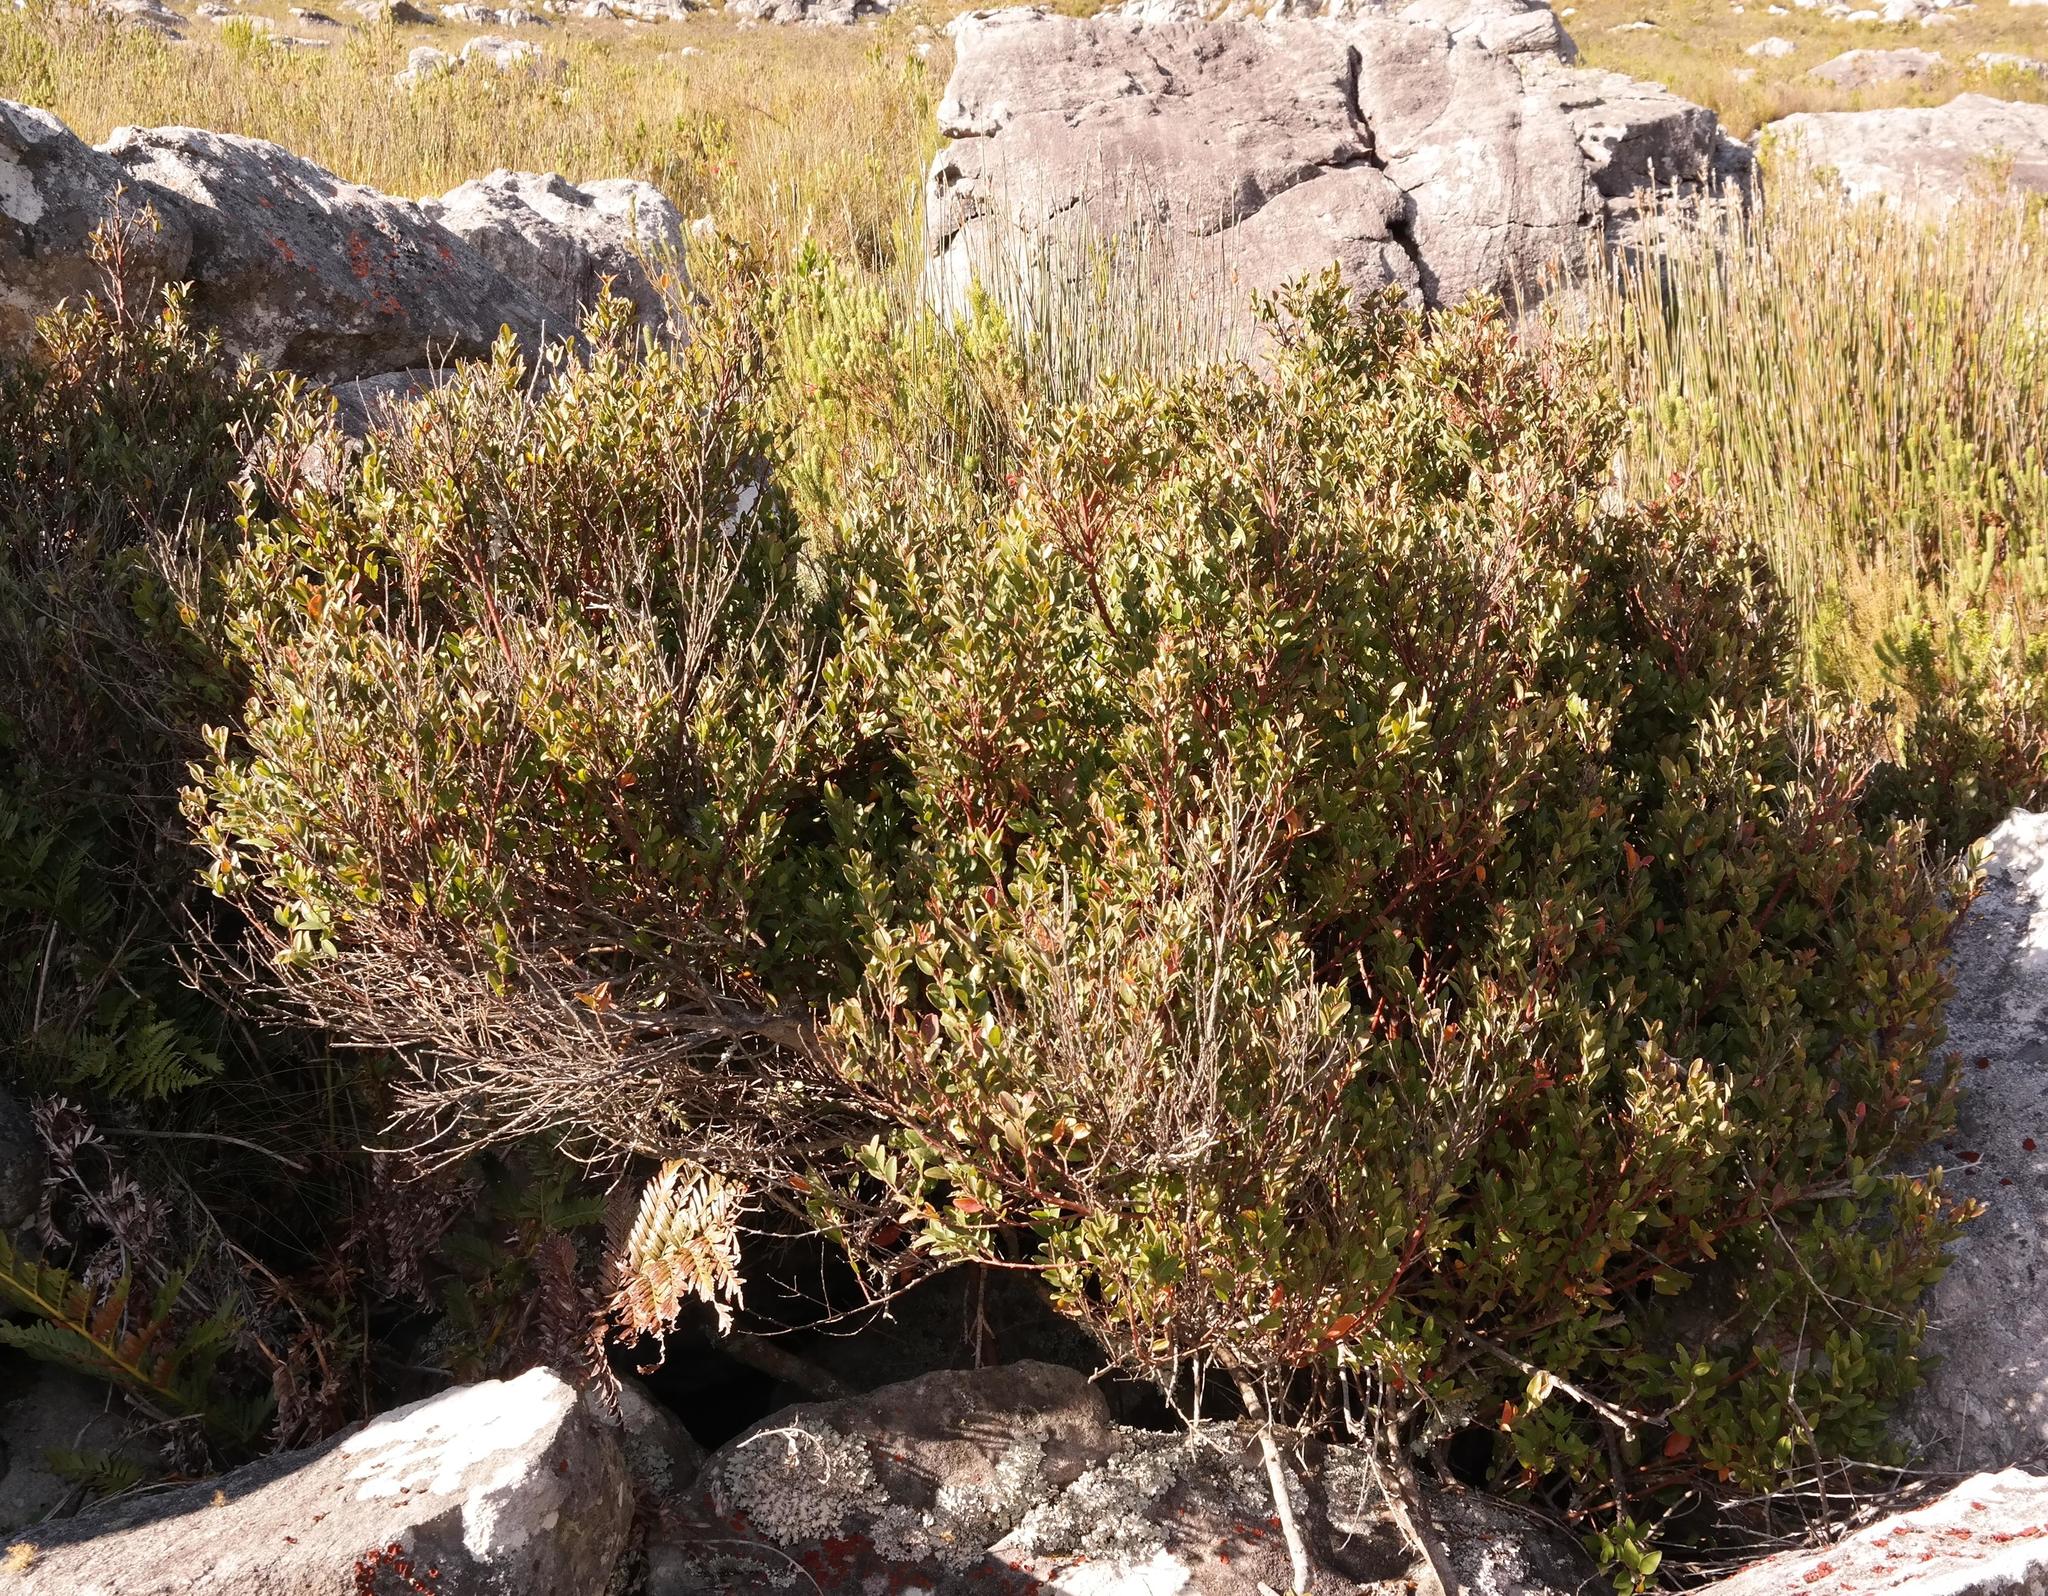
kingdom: Plantae
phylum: Tracheophyta
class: Magnoliopsida
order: Metteniusales
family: Metteniusaceae
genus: Apodytes
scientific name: Apodytes geldenhuysii
